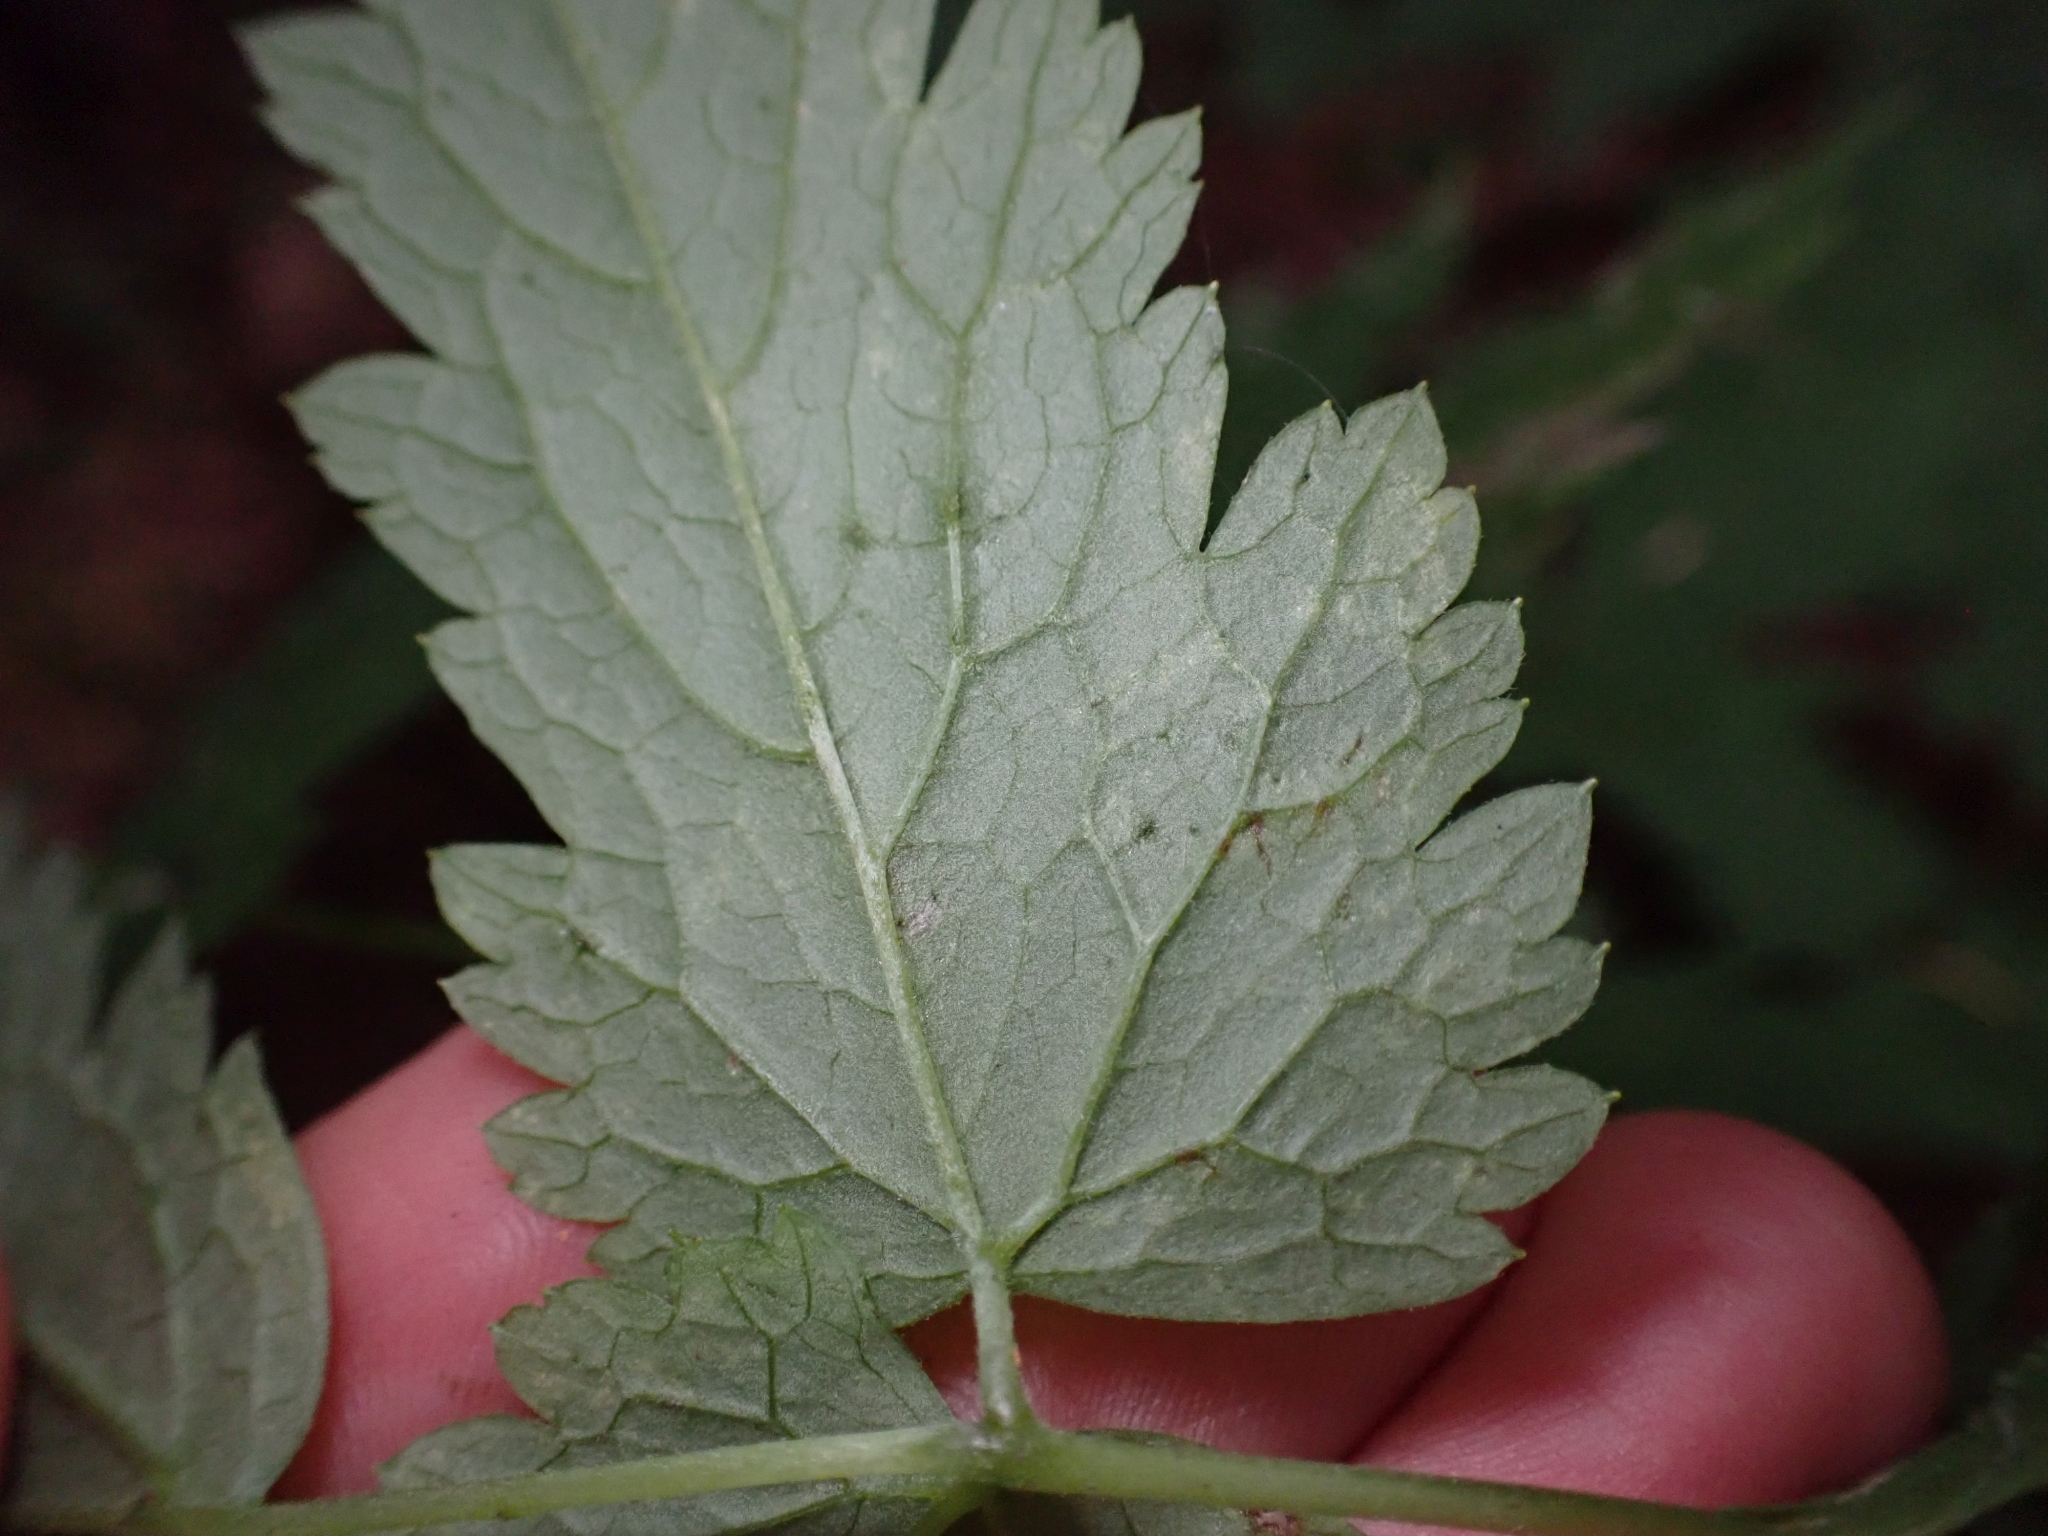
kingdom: Plantae
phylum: Tracheophyta
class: Magnoliopsida
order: Ranunculales
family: Ranunculaceae
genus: Actaea
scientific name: Actaea rubra
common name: Red baneberry
